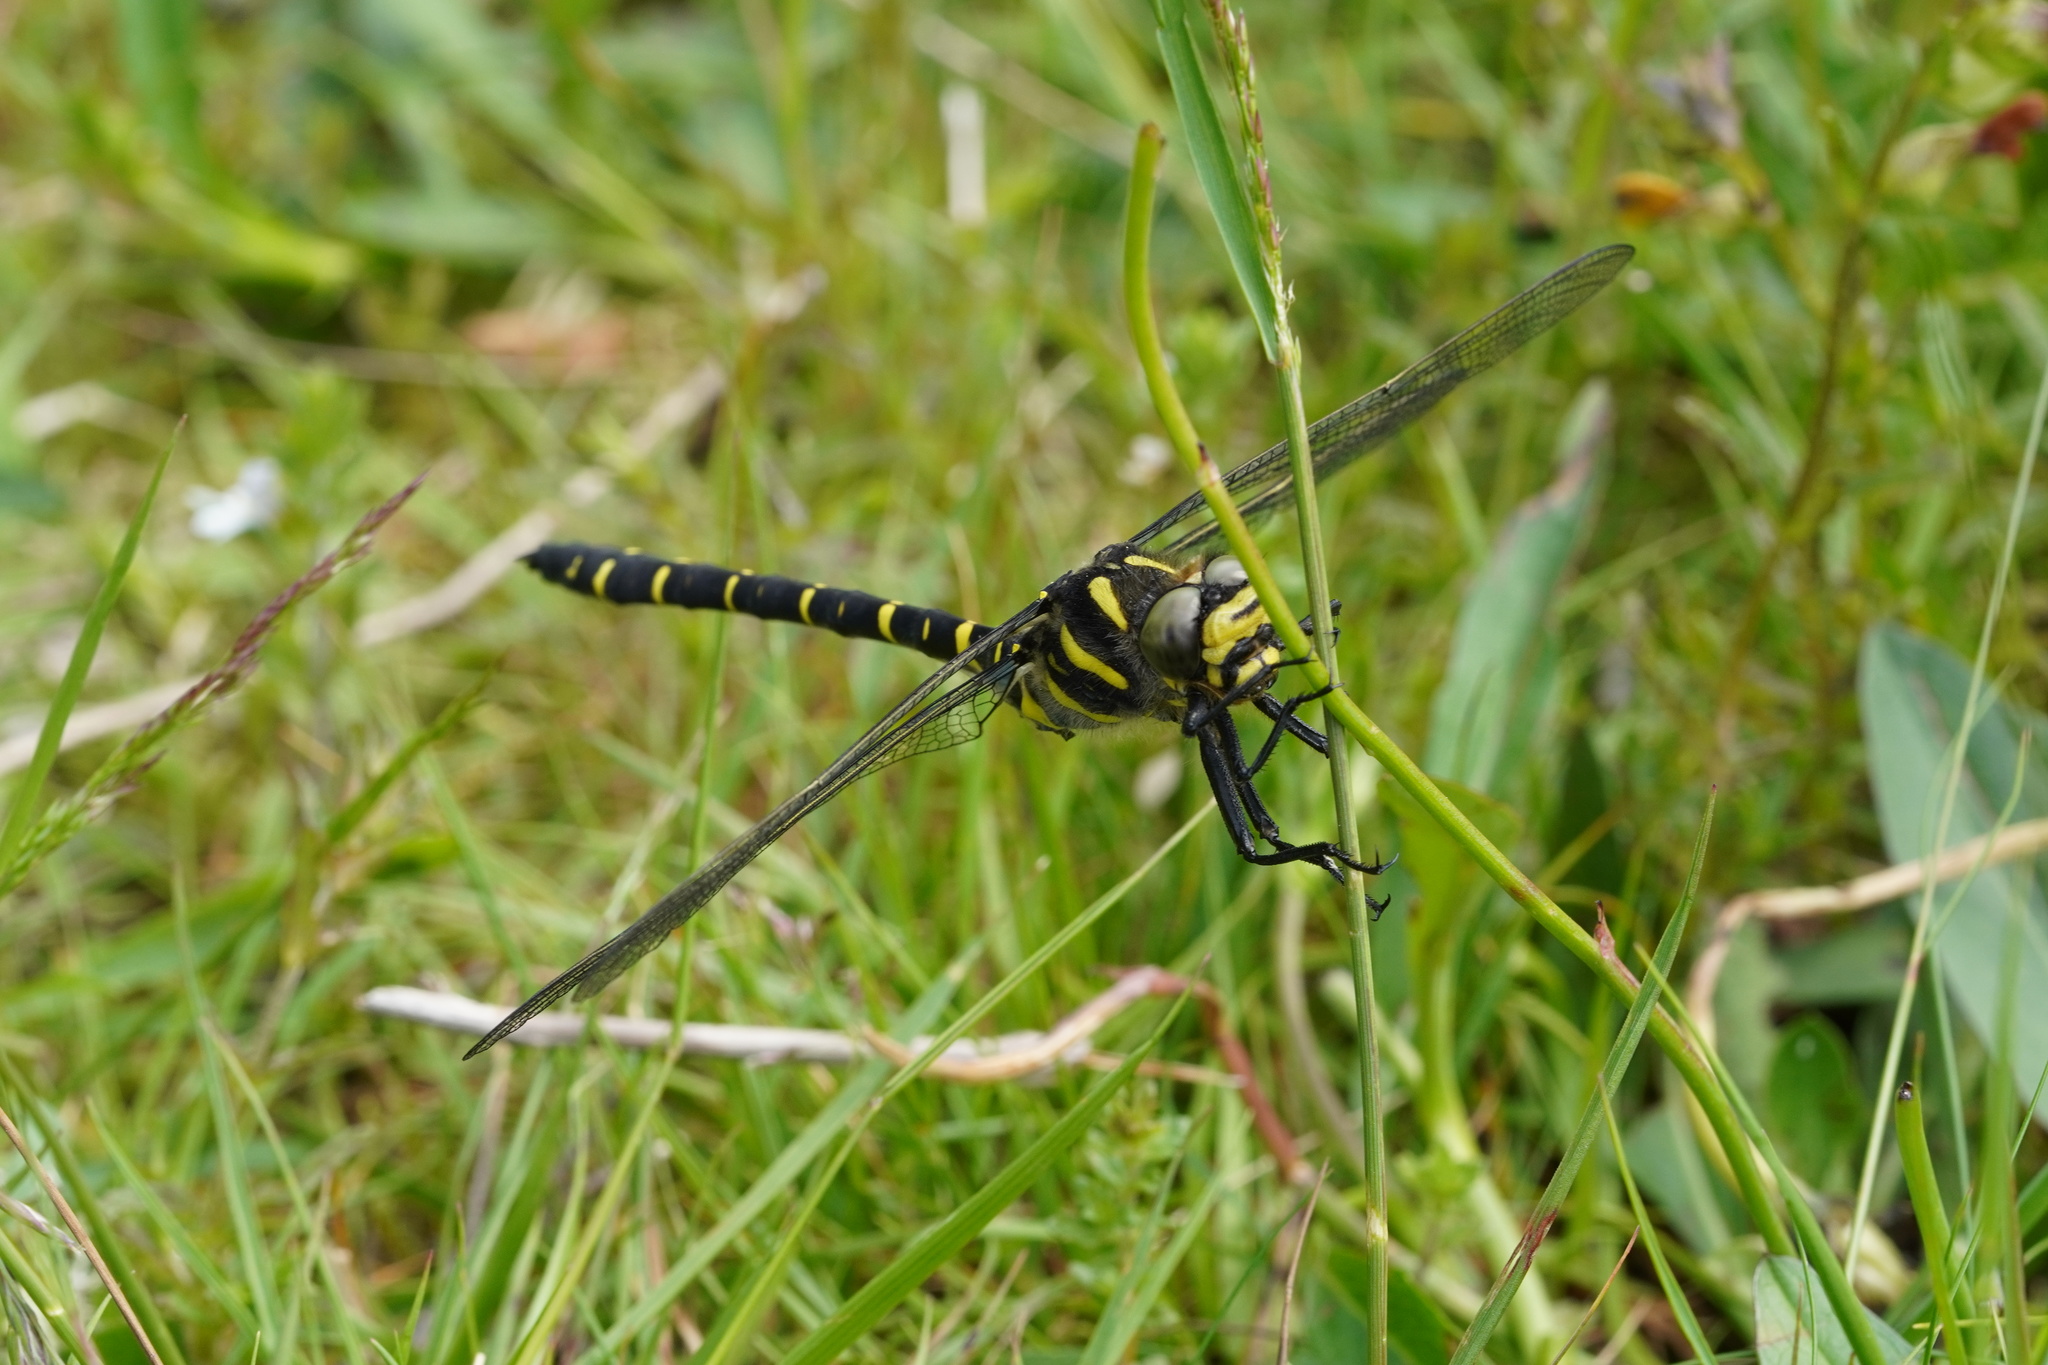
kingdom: Animalia
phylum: Arthropoda
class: Insecta
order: Odonata
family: Cordulegastridae
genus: Cordulegaster
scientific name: Cordulegaster boltonii
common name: Golden-ringed dragonfly
